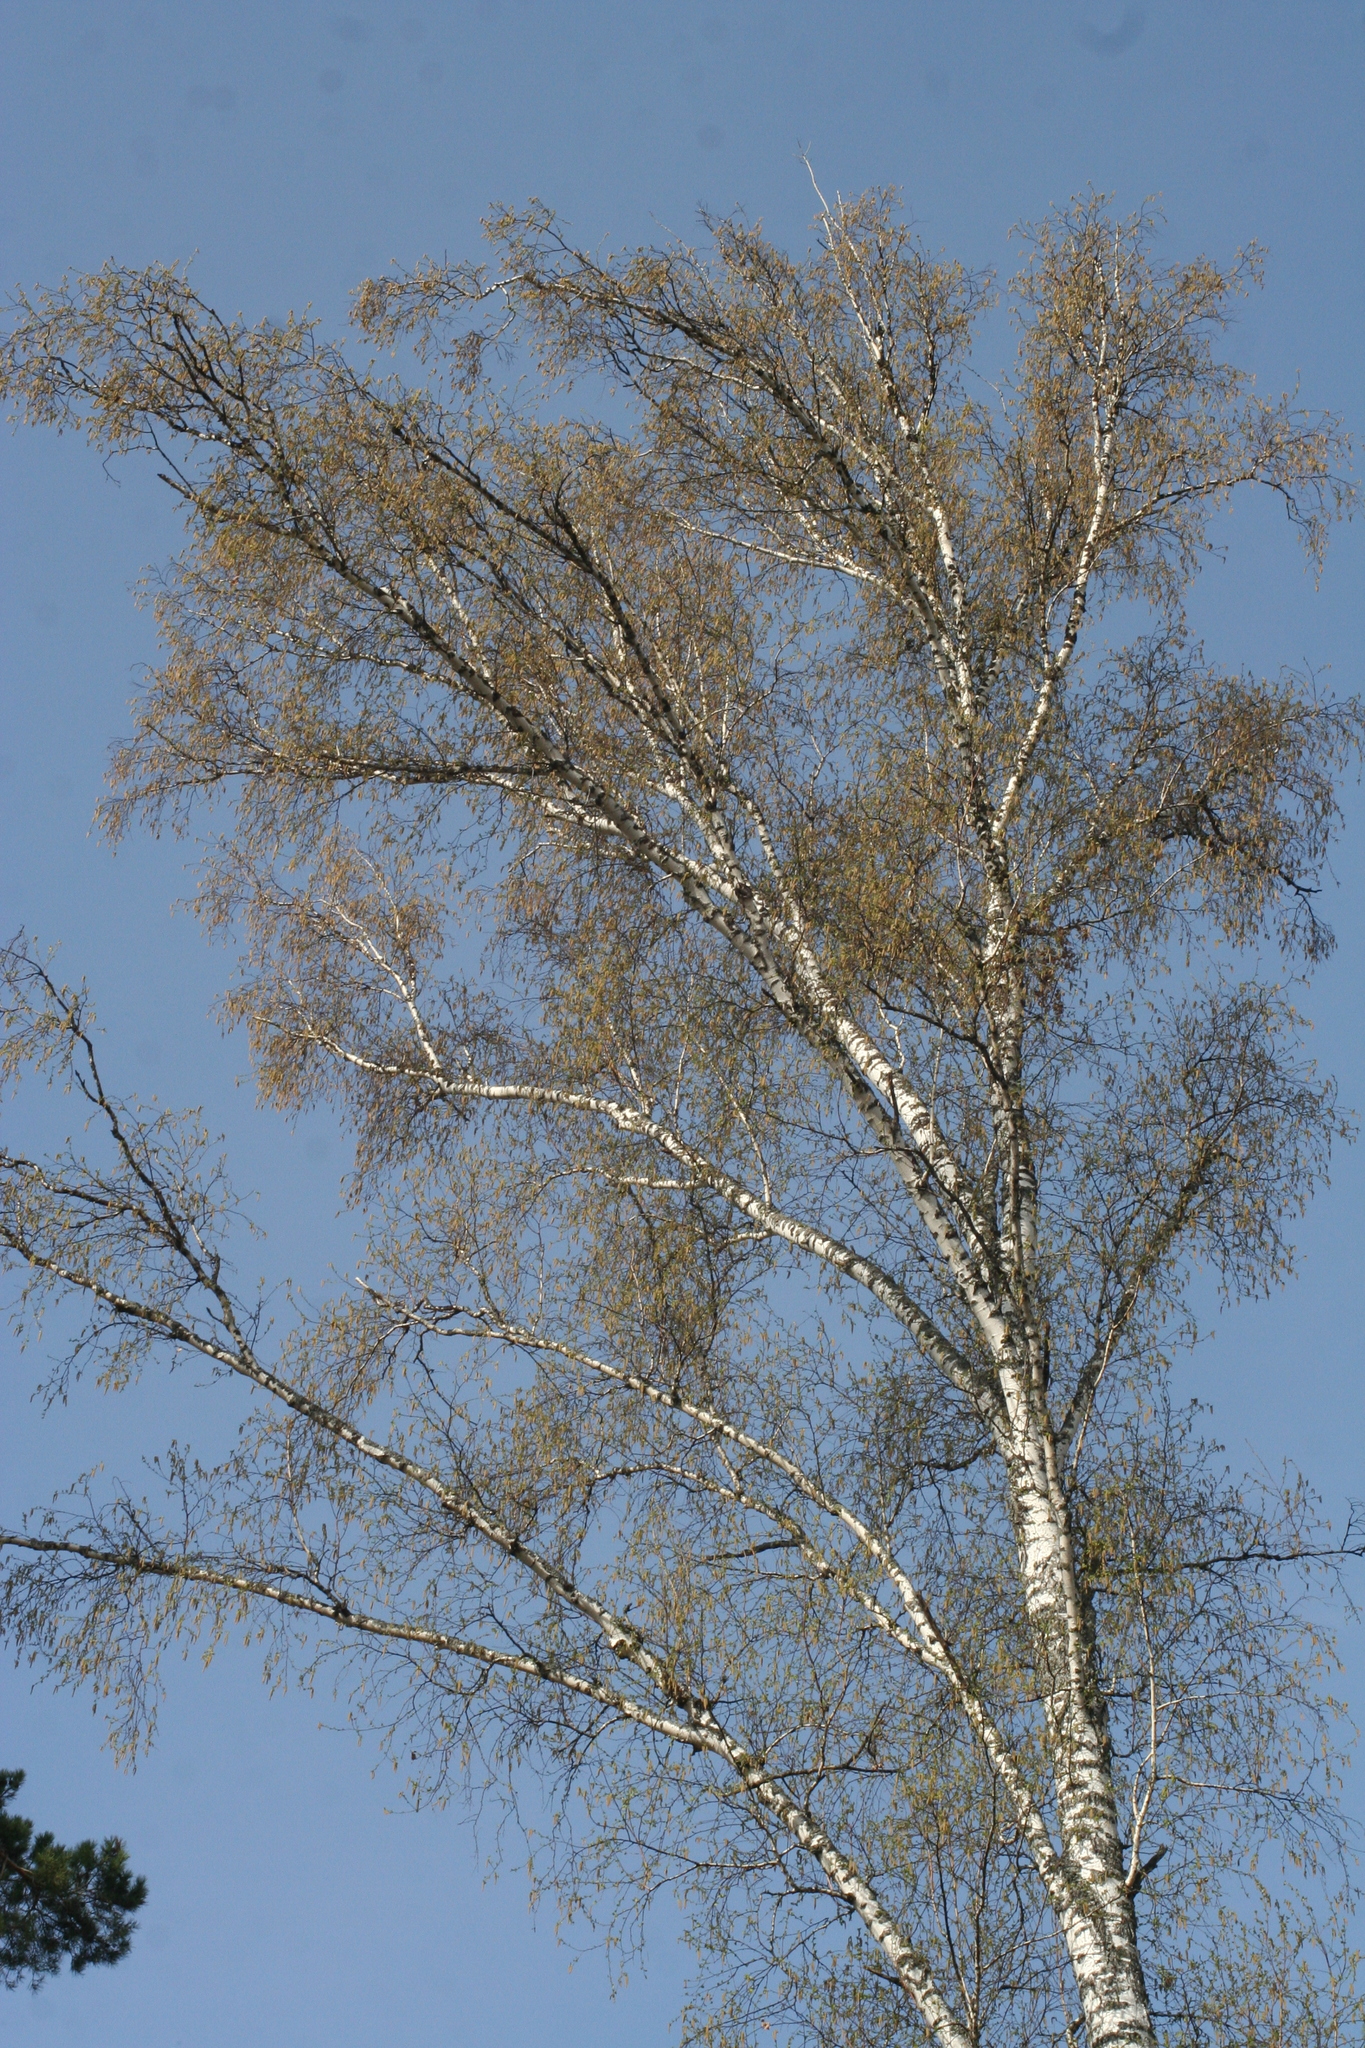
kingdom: Plantae
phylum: Tracheophyta
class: Magnoliopsida
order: Fagales
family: Betulaceae
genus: Betula
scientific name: Betula pendula
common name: Silver birch
